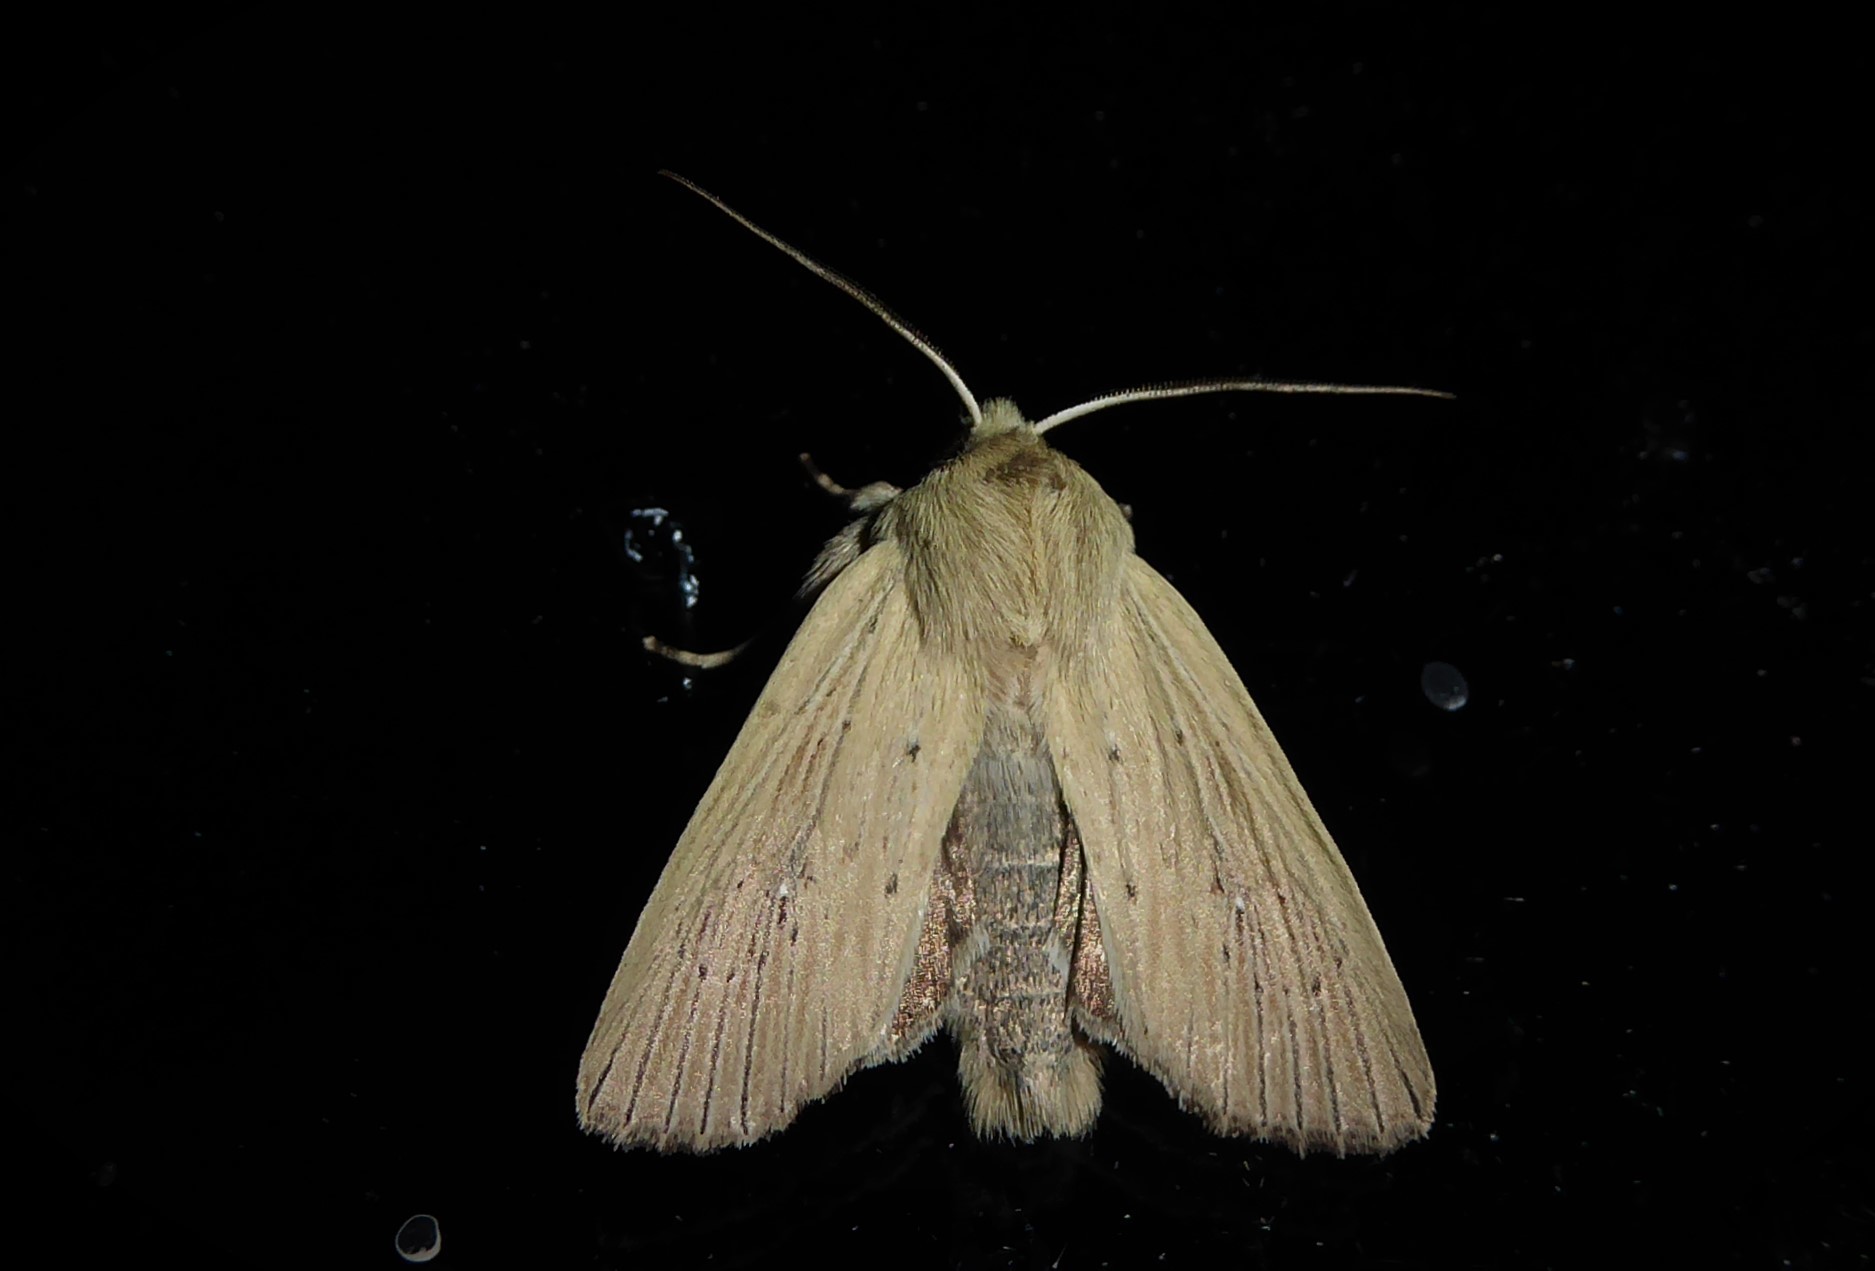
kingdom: Animalia
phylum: Arthropoda
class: Insecta
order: Lepidoptera
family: Noctuidae
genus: Ichneutica
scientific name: Ichneutica arotis
